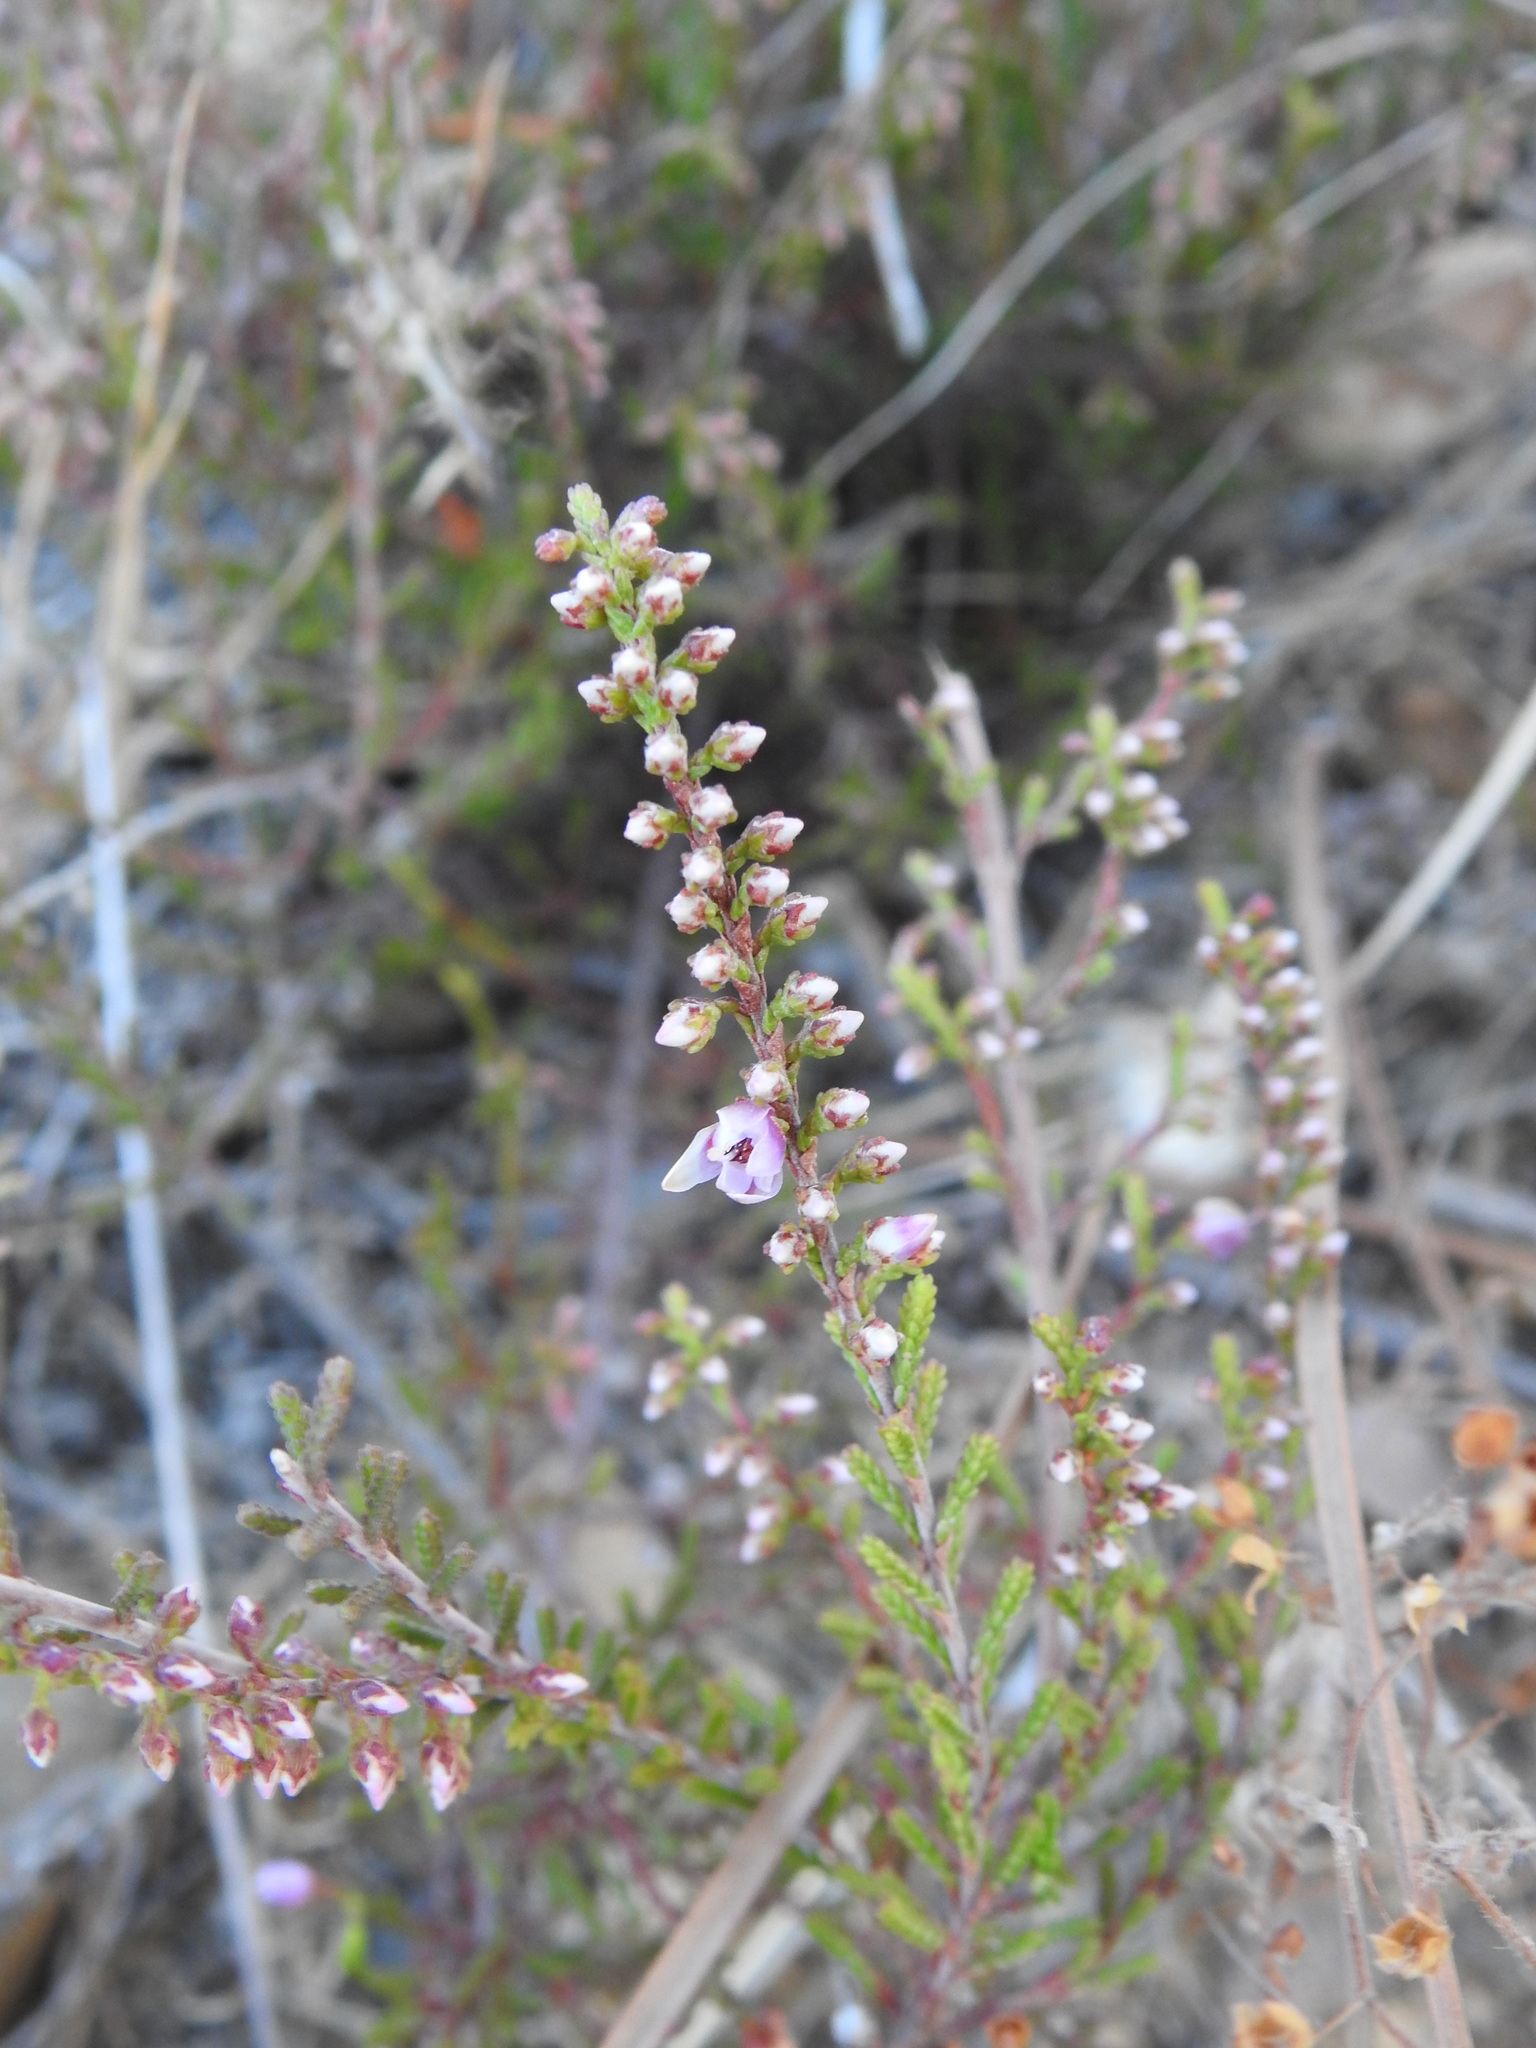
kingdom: Plantae
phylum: Tracheophyta
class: Magnoliopsida
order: Ericales
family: Ericaceae
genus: Calluna
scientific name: Calluna vulgaris
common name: Heather
